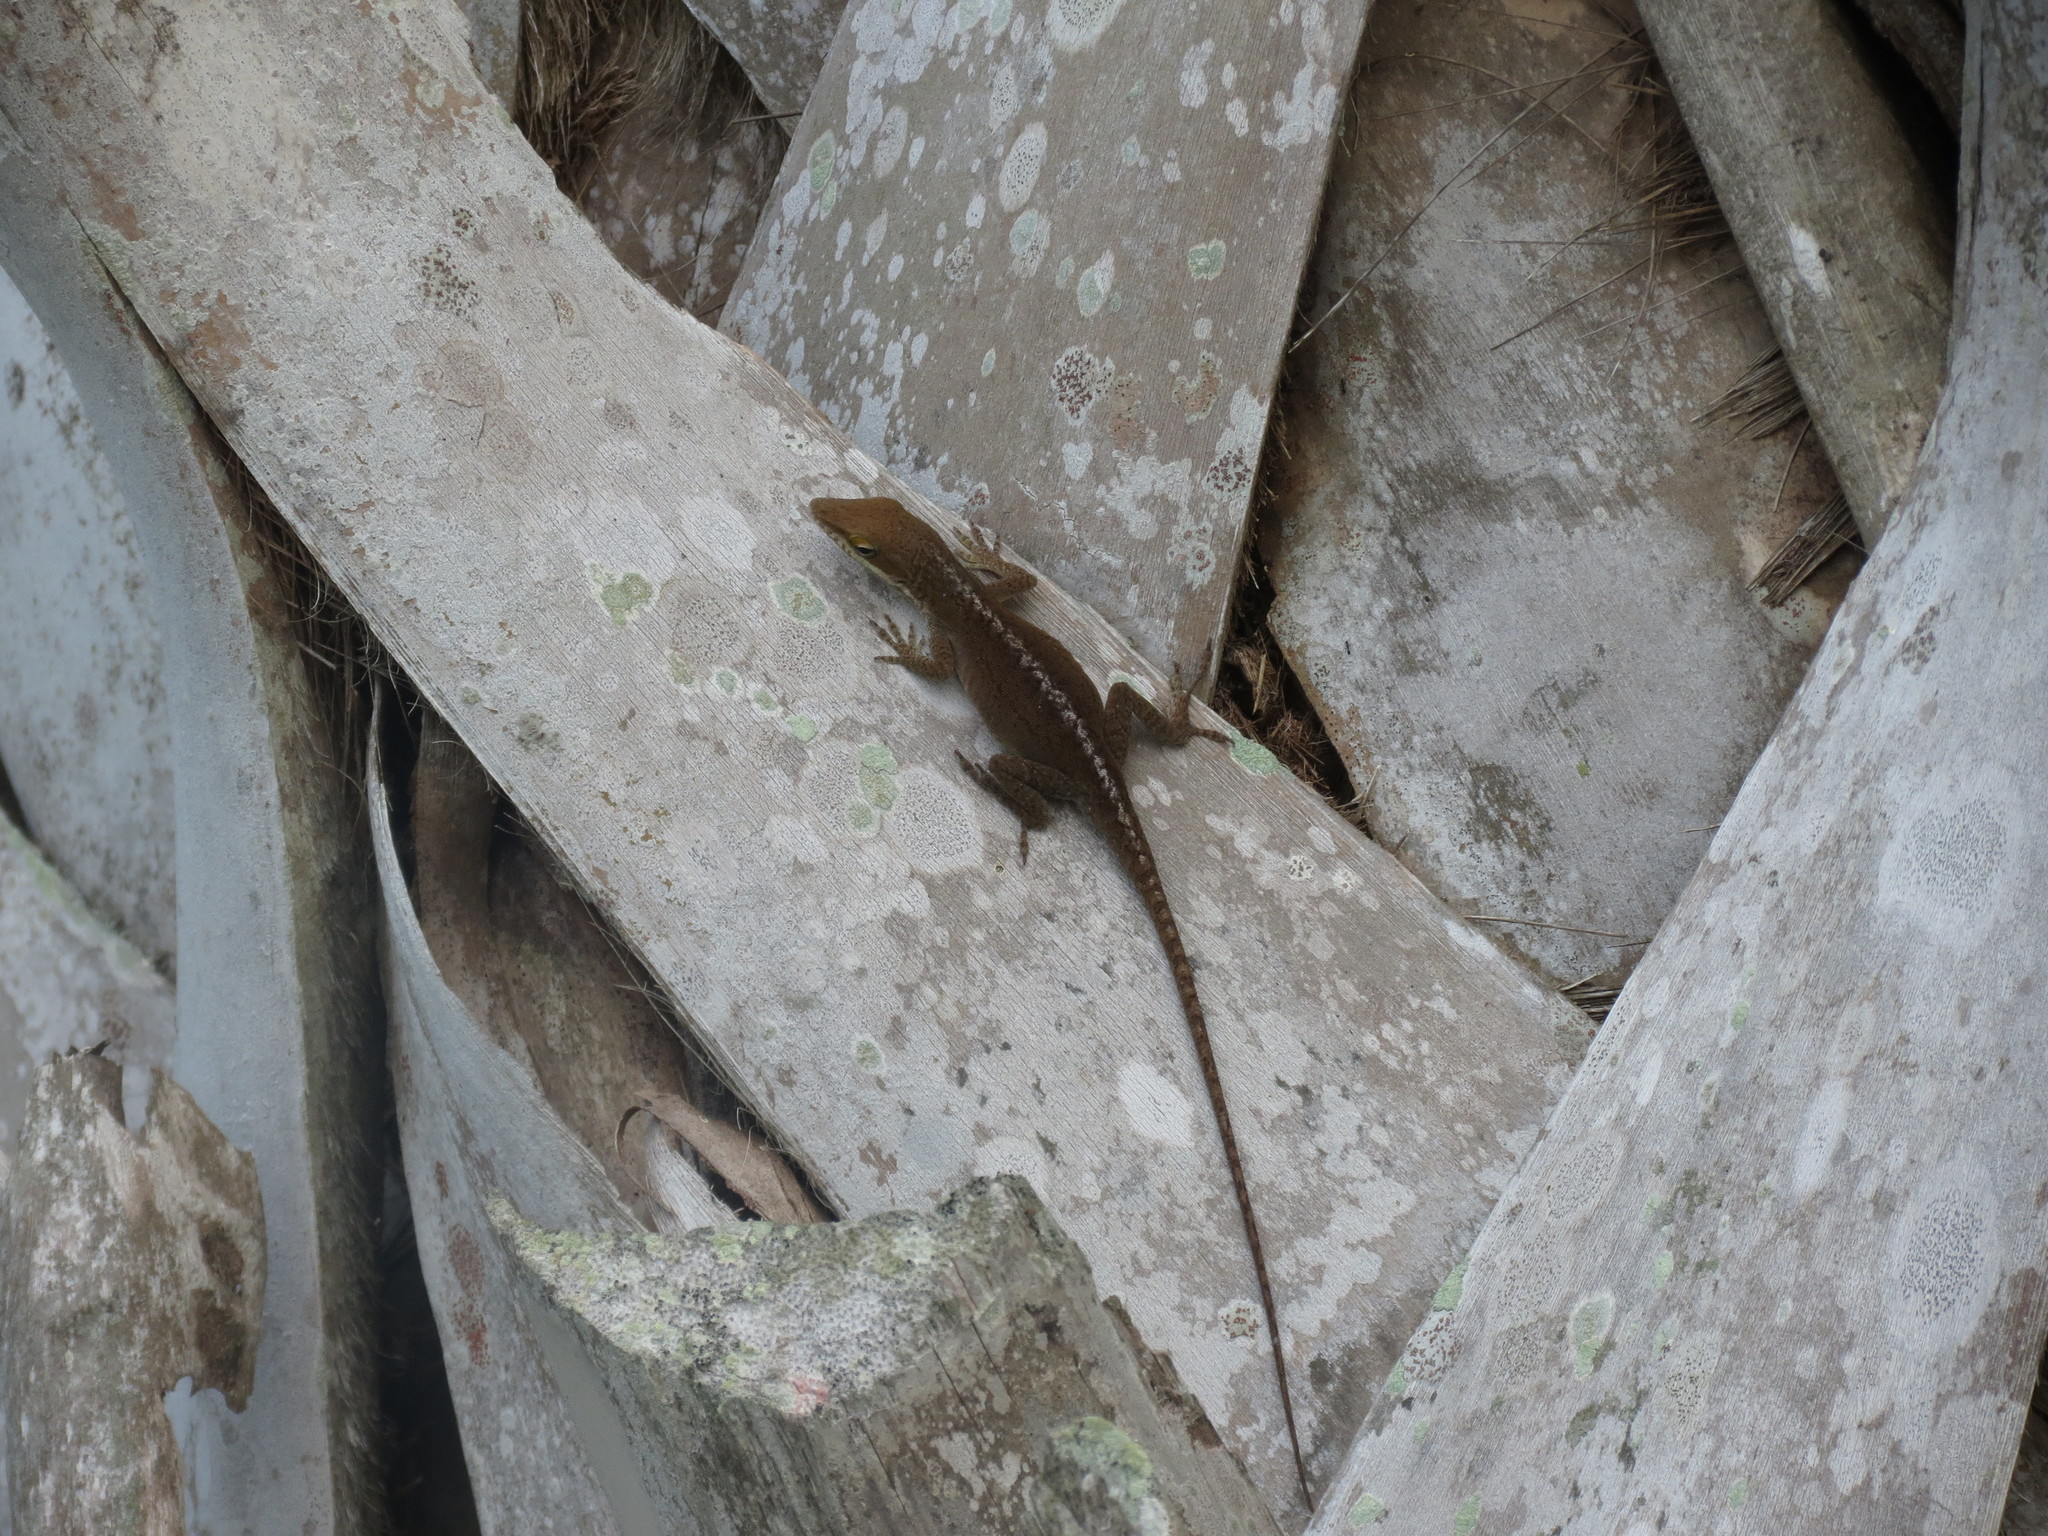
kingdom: Animalia
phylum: Chordata
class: Squamata
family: Dactyloidae
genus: Anolis
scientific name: Anolis carolinensis
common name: Green anole
